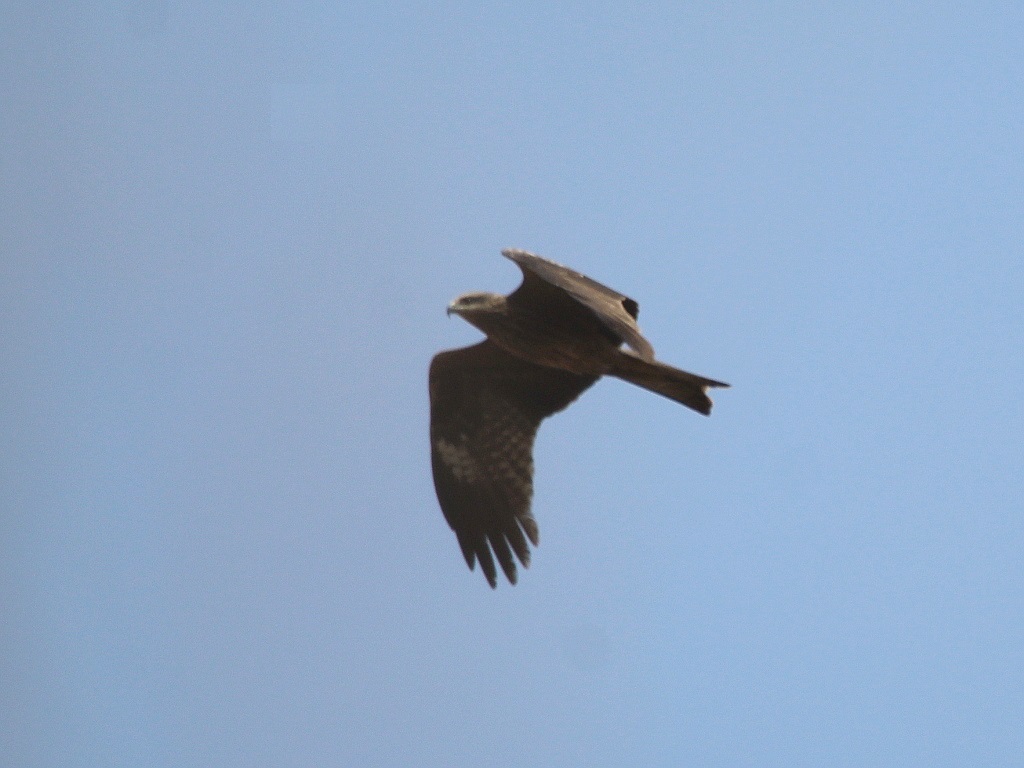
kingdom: Animalia
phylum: Chordata
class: Aves
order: Accipitriformes
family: Accipitridae
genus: Milvus
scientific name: Milvus migrans
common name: Black kite
